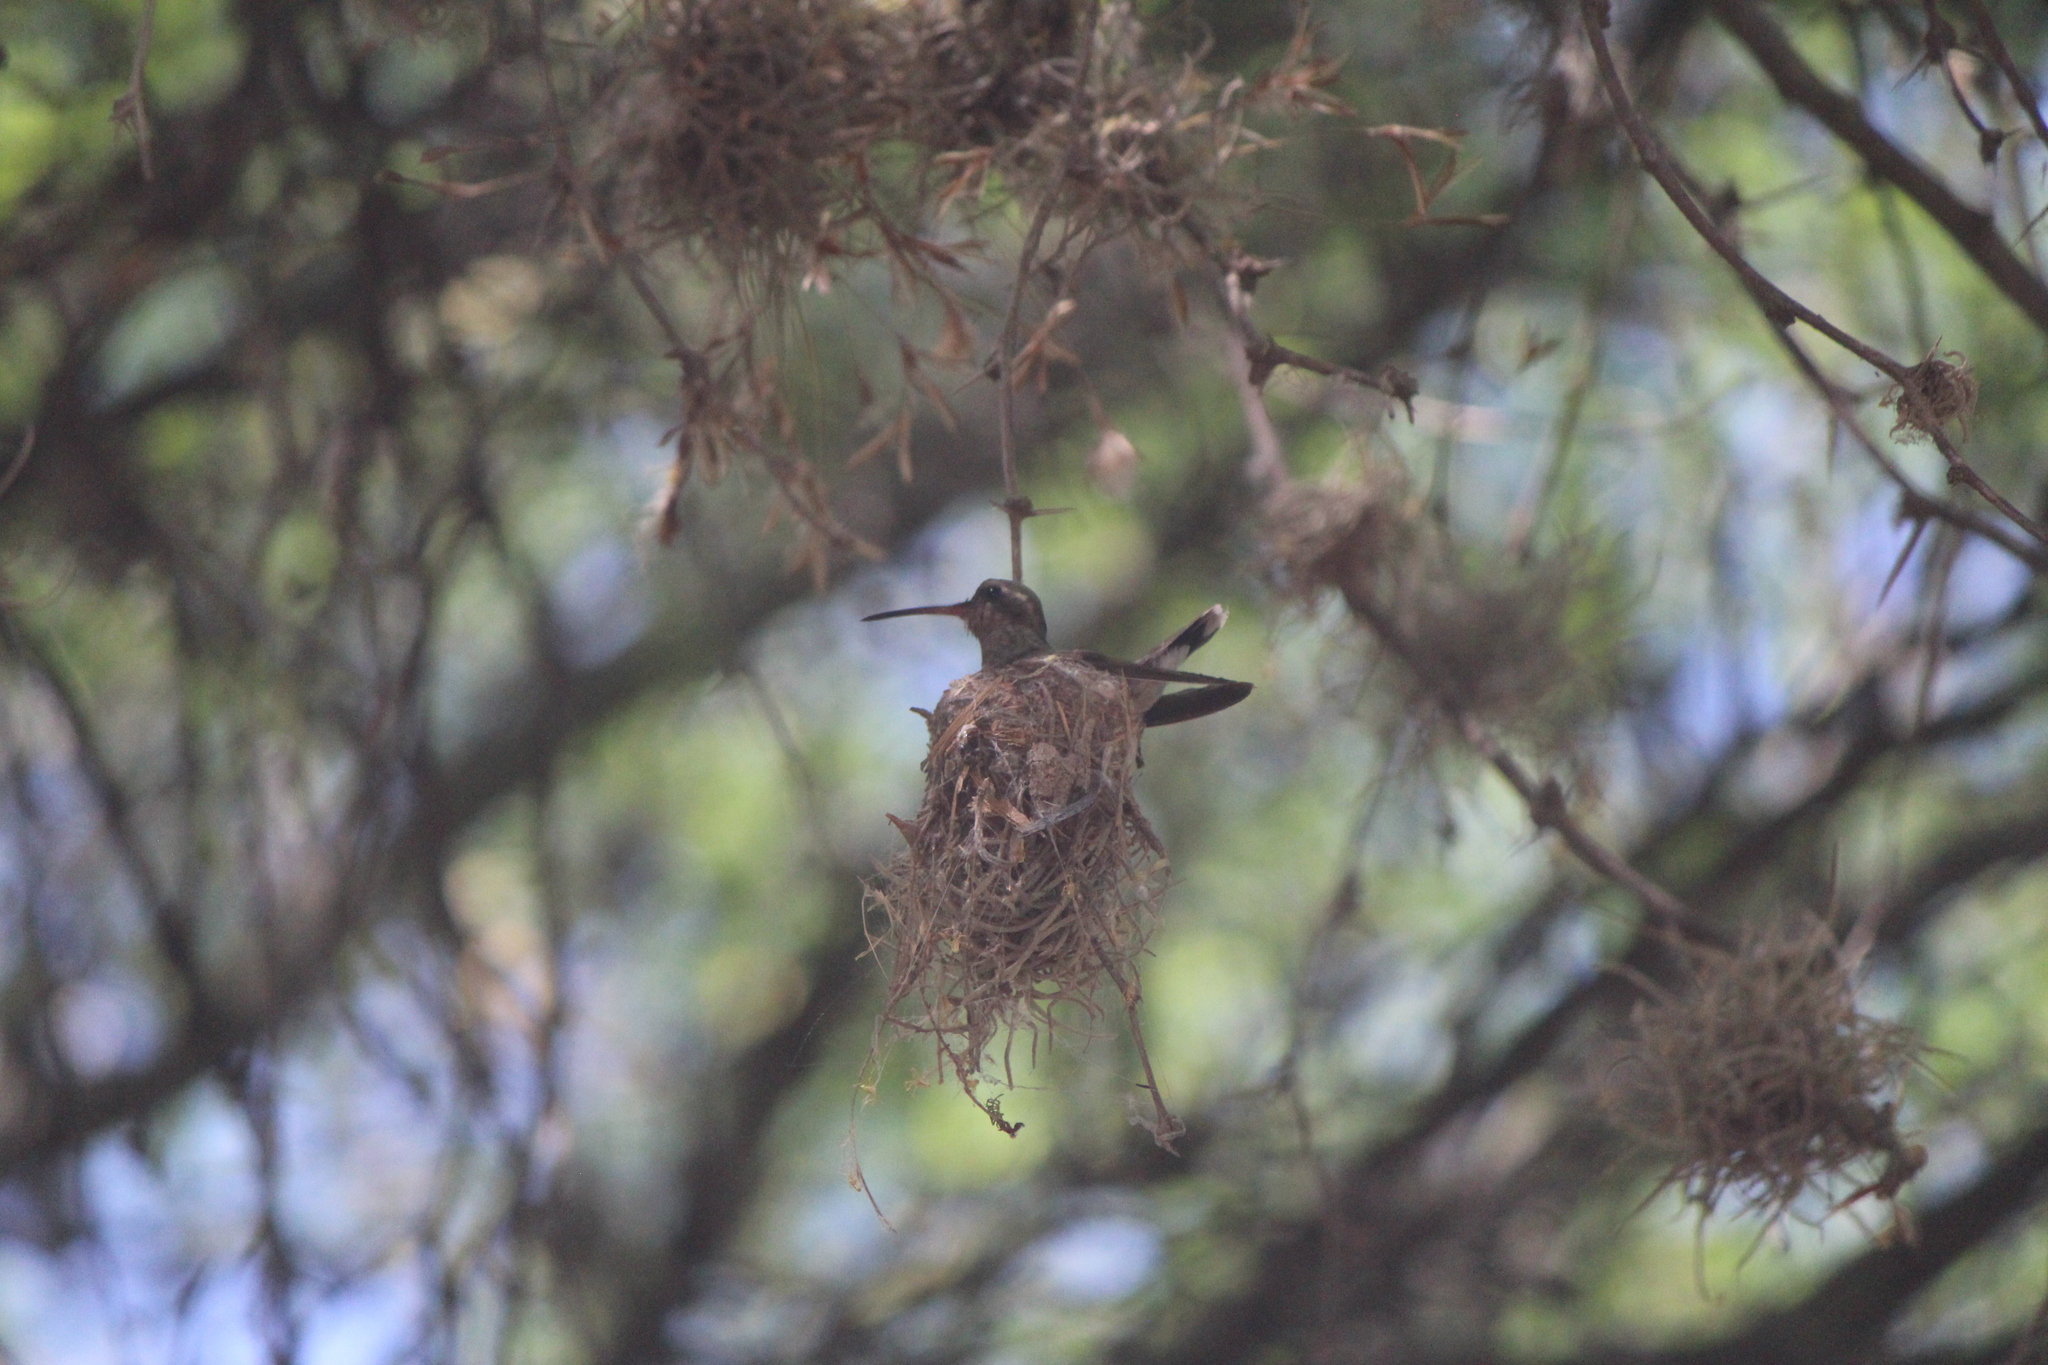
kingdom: Animalia
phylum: Chordata
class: Aves
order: Apodiformes
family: Trochilidae
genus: Cynanthus
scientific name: Cynanthus latirostris
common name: Broad-billed hummingbird
